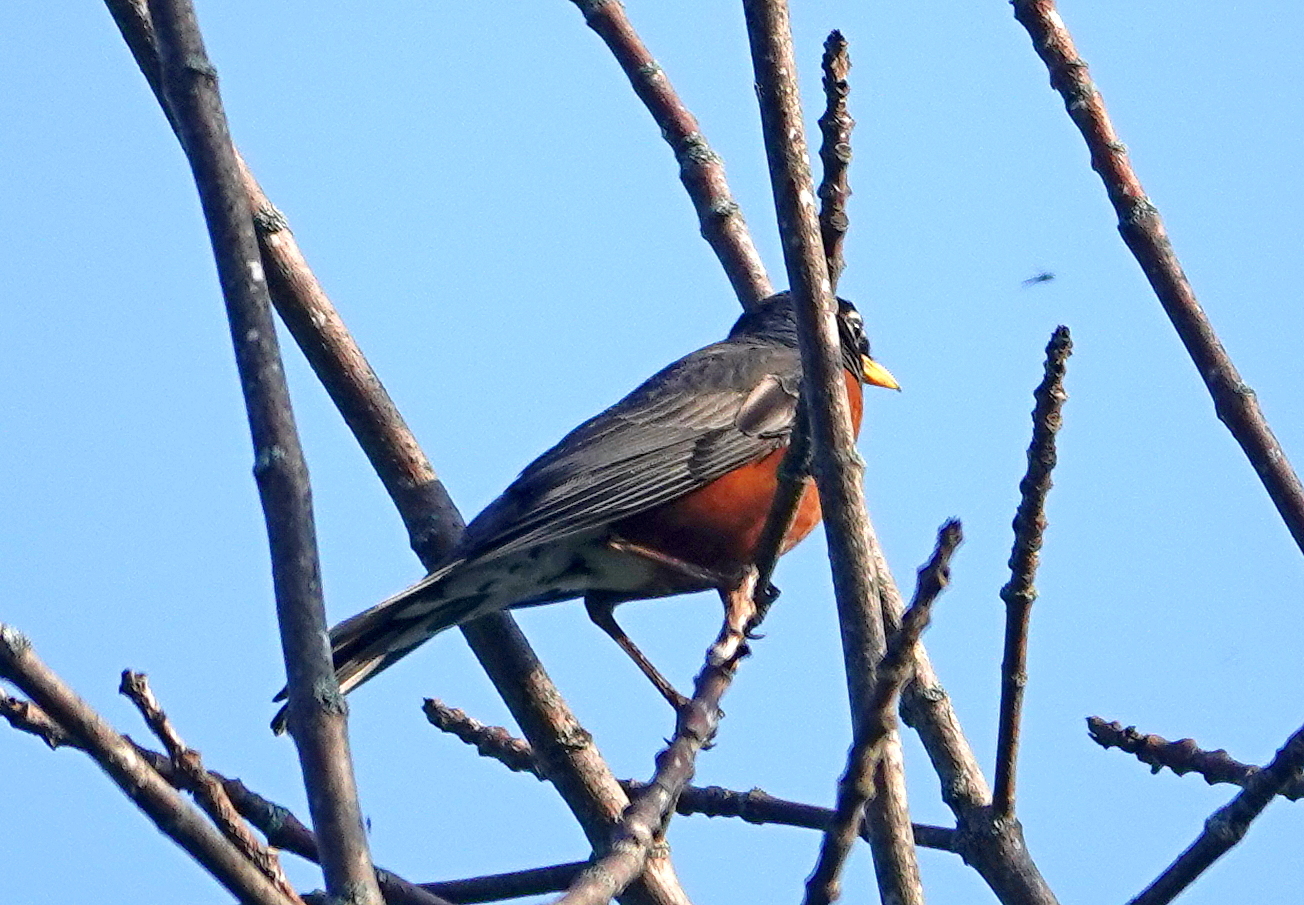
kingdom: Animalia
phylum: Chordata
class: Aves
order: Passeriformes
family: Turdidae
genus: Turdus
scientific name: Turdus migratorius
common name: American robin
